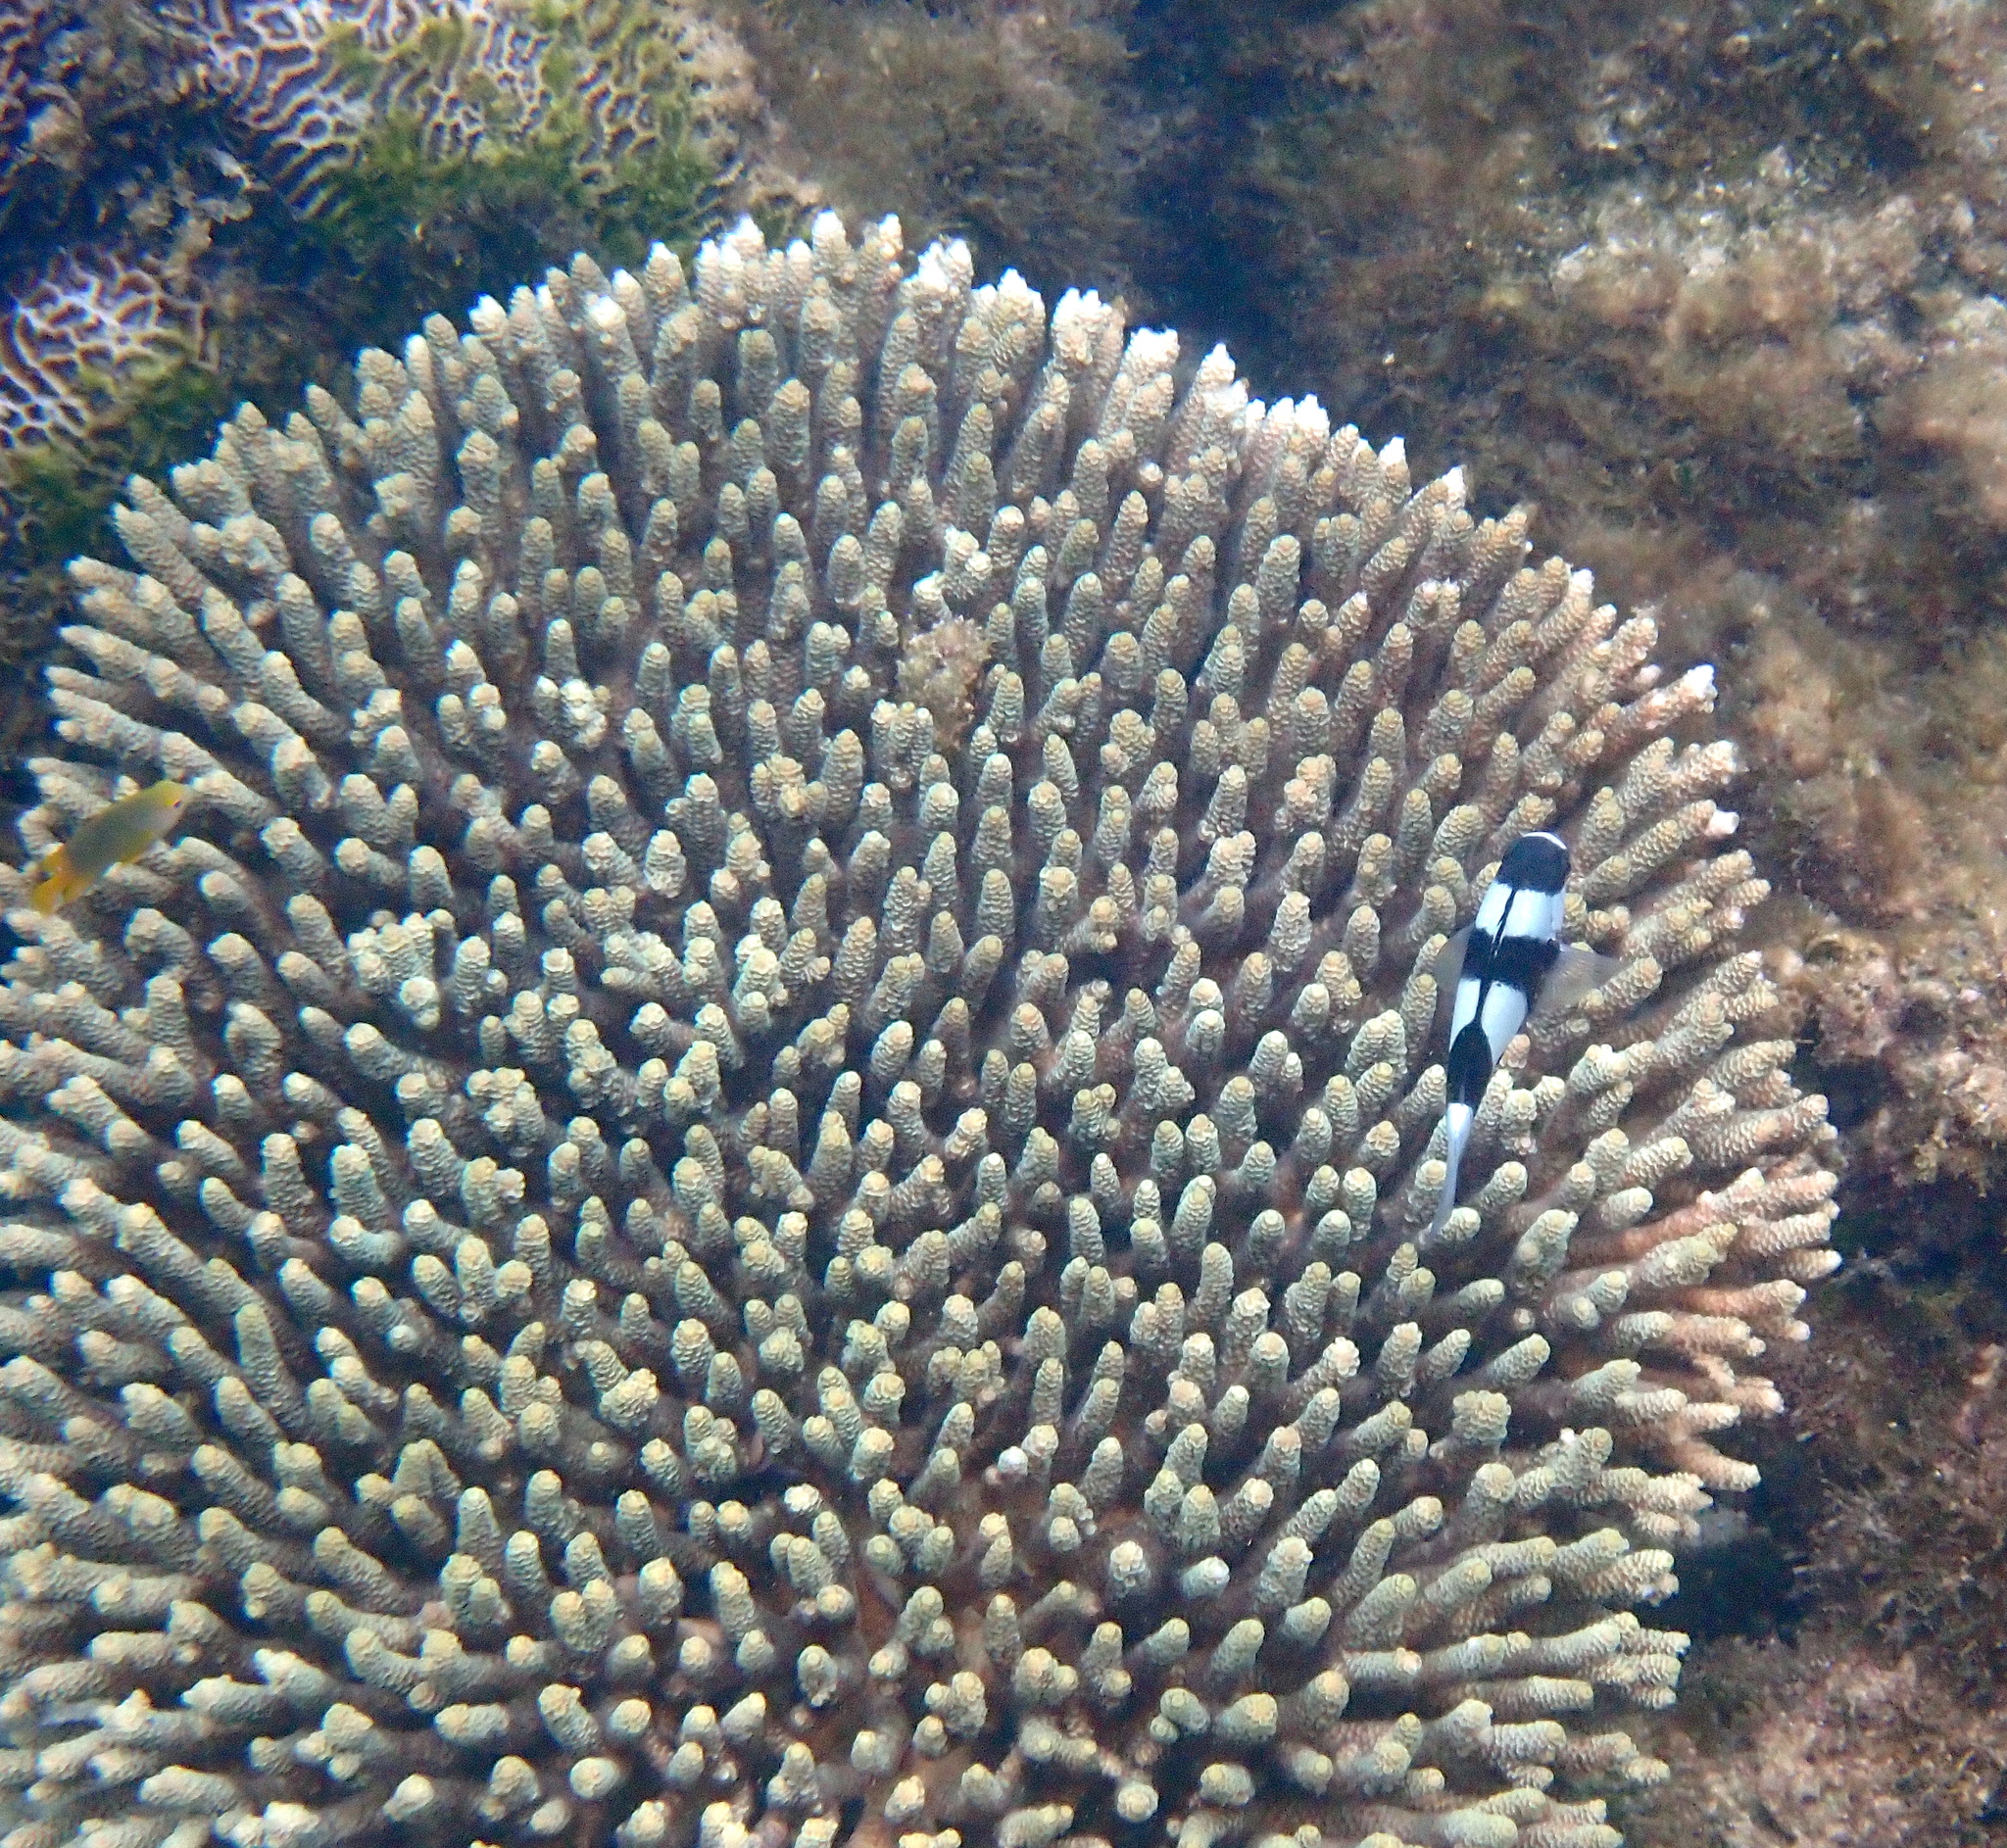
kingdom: Animalia
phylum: Chordata
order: Perciformes
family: Pomacentridae
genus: Dascyllus
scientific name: Dascyllus aruanus
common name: Humbug dascyllus
